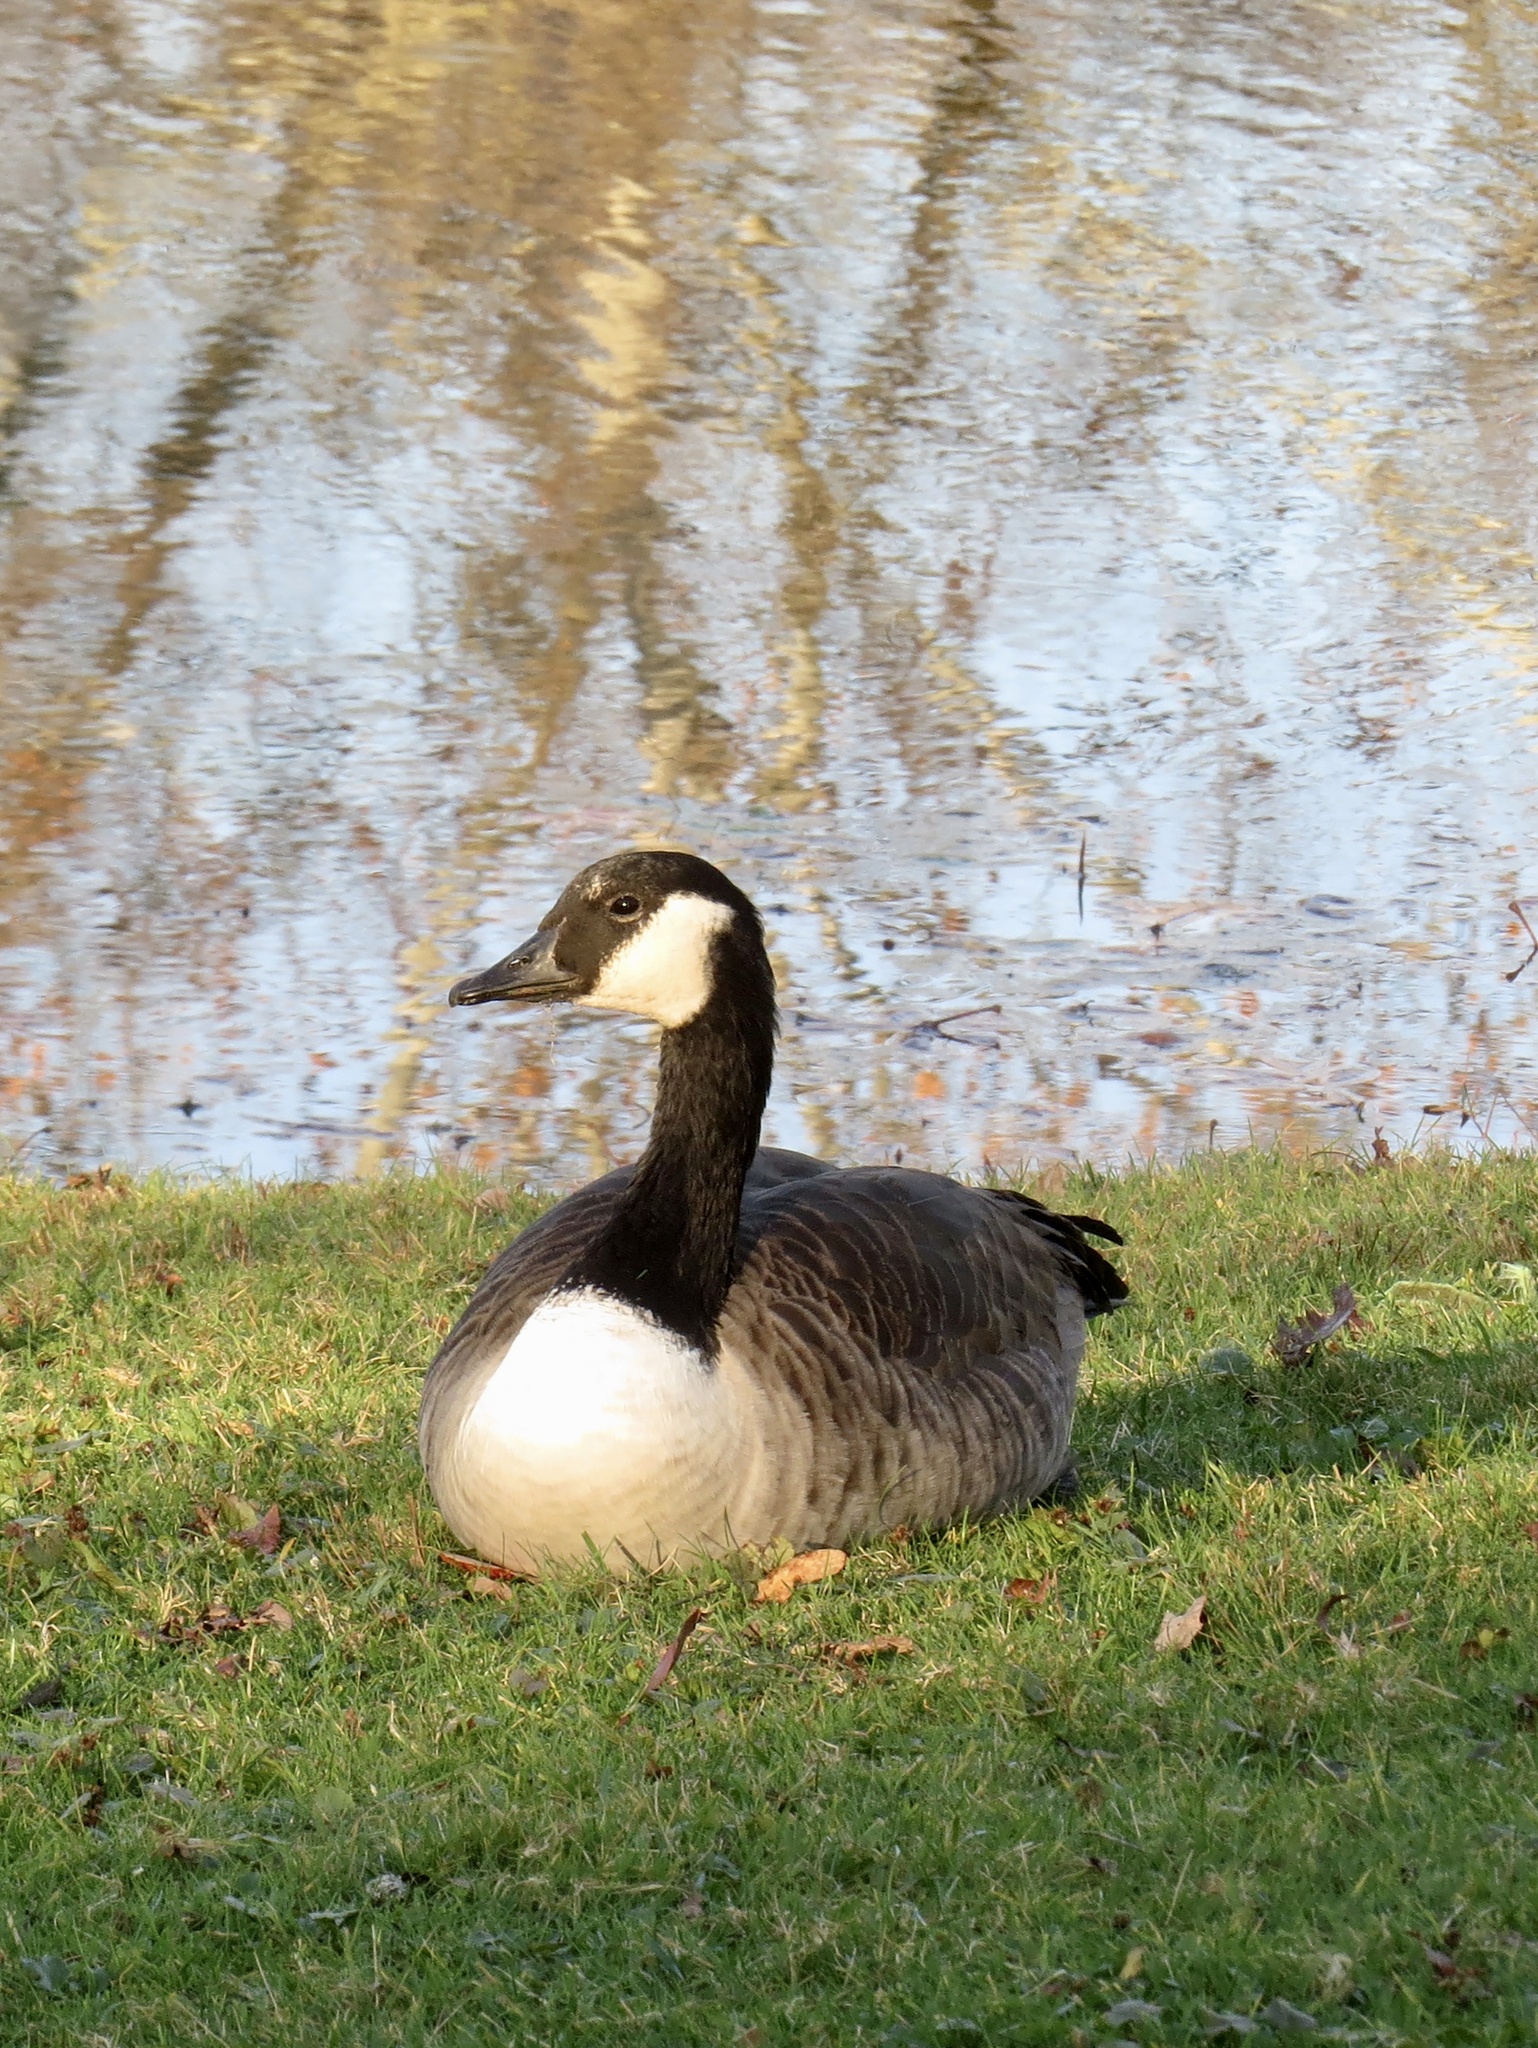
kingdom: Animalia
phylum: Chordata
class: Aves
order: Anseriformes
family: Anatidae
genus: Branta
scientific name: Branta canadensis
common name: Canada goose
